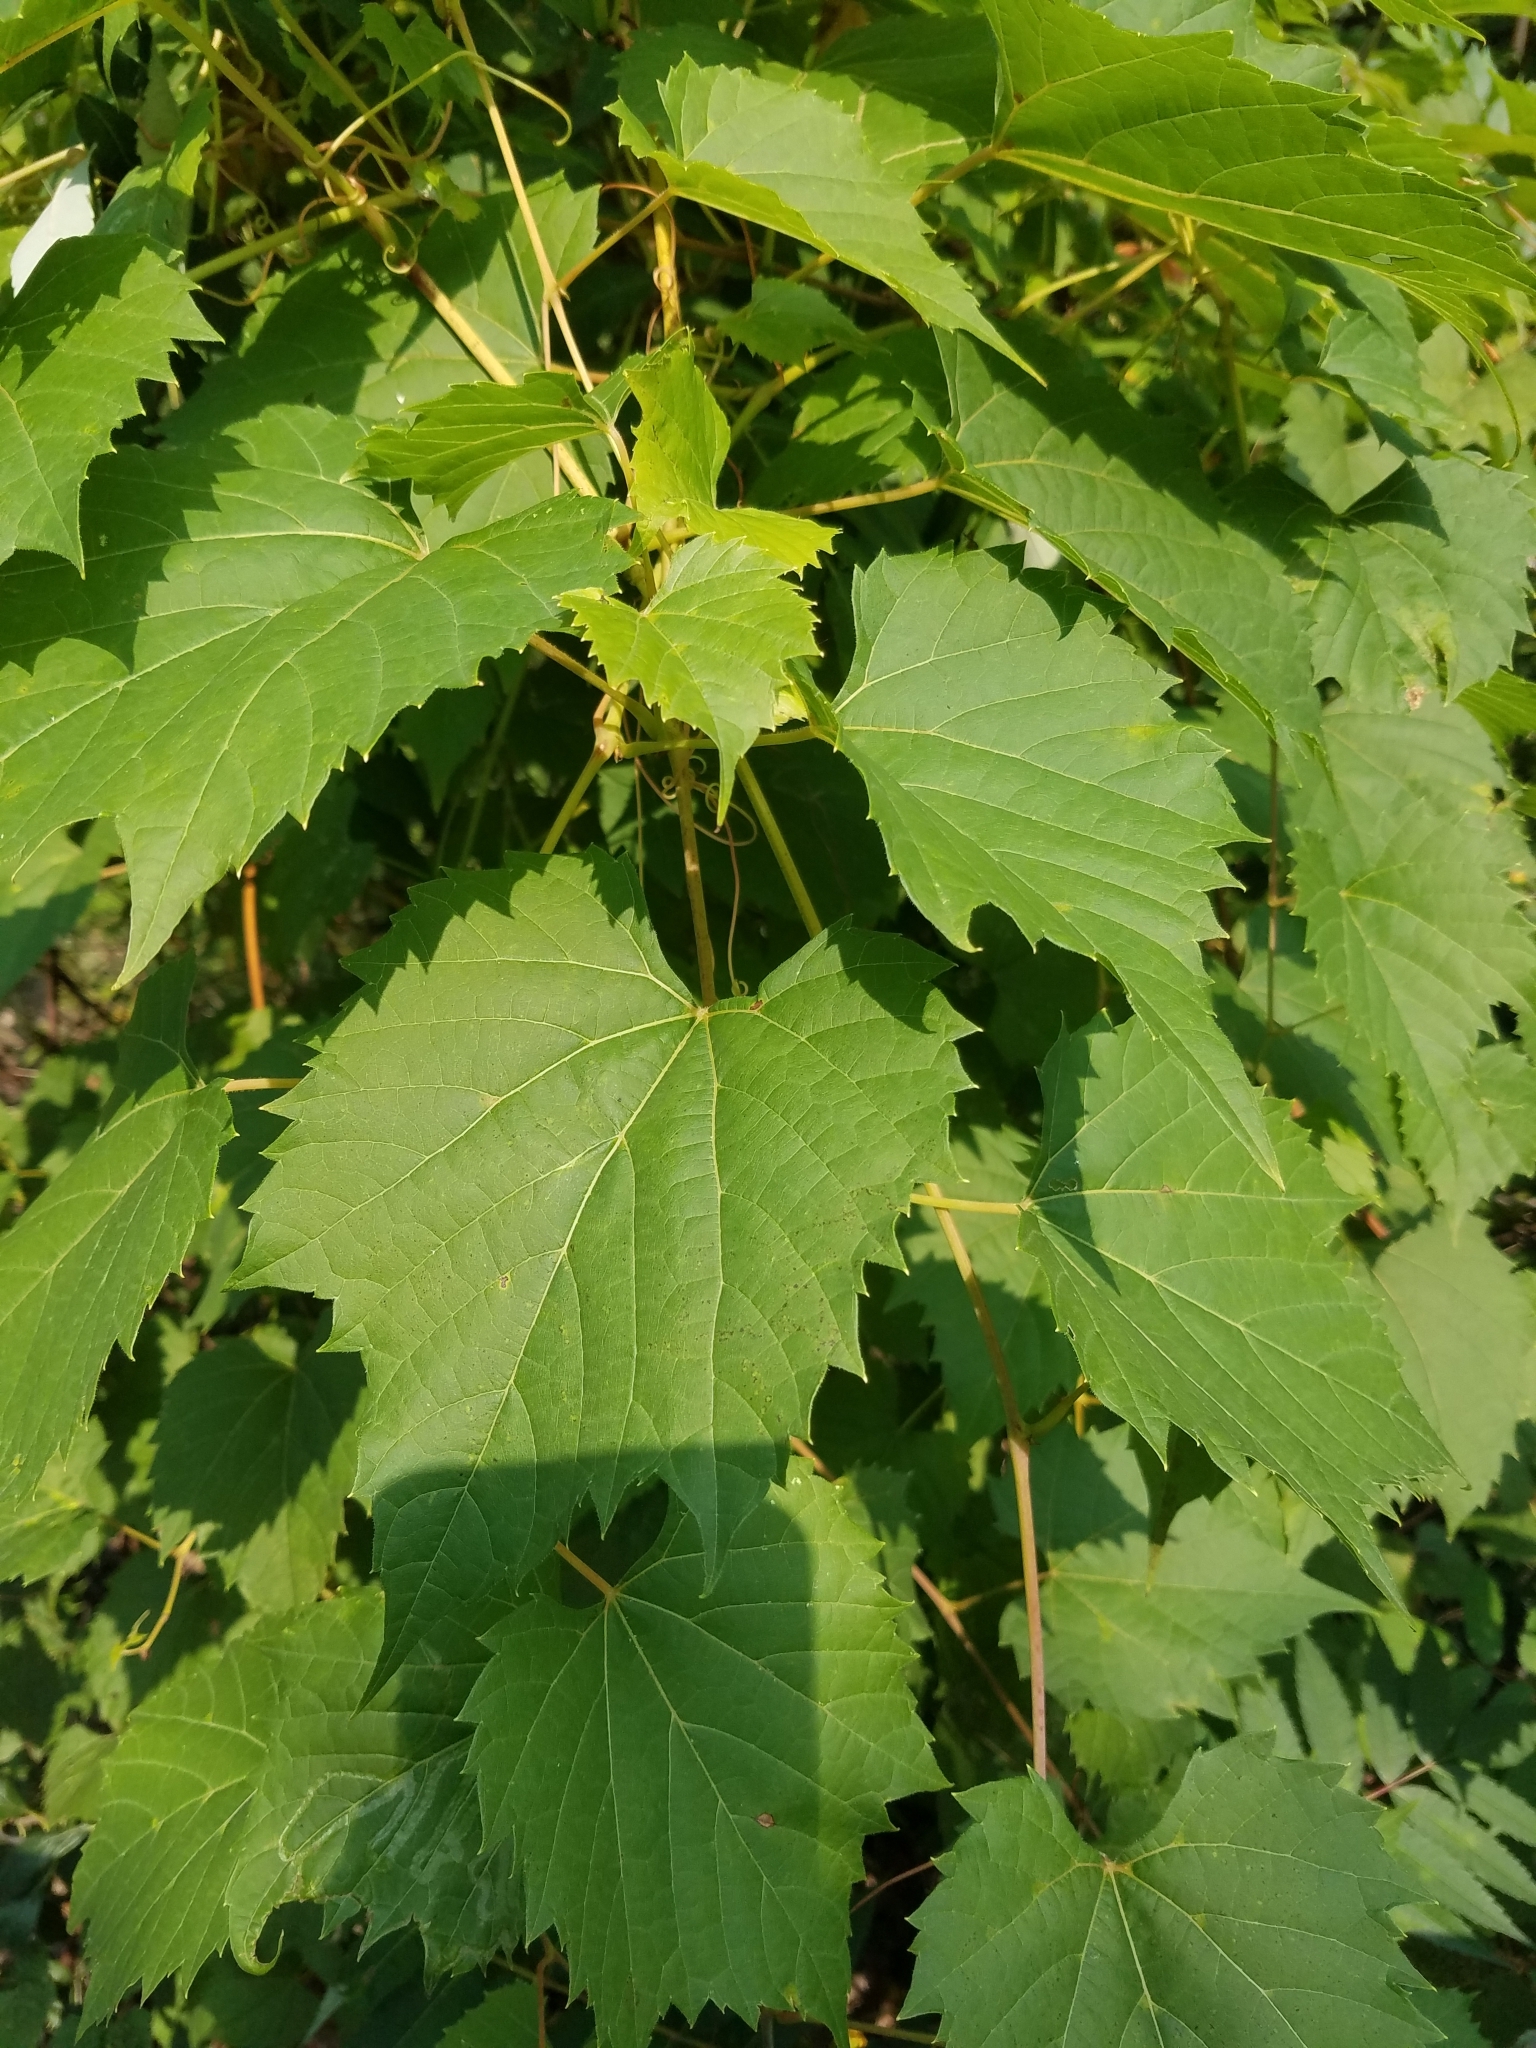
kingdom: Plantae
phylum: Tracheophyta
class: Magnoliopsida
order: Vitales
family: Vitaceae
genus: Vitis
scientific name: Vitis riparia
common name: Frost grape
